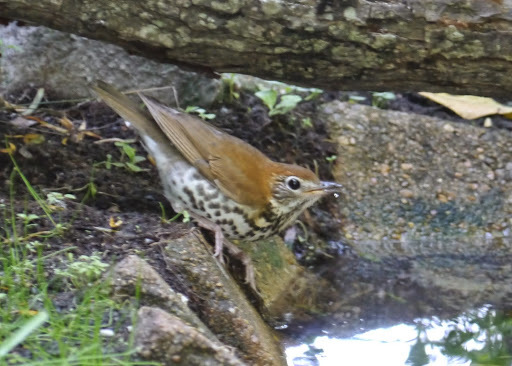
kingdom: Animalia
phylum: Chordata
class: Aves
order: Passeriformes
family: Turdidae
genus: Hylocichla
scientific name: Hylocichla mustelina
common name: Wood thrush
